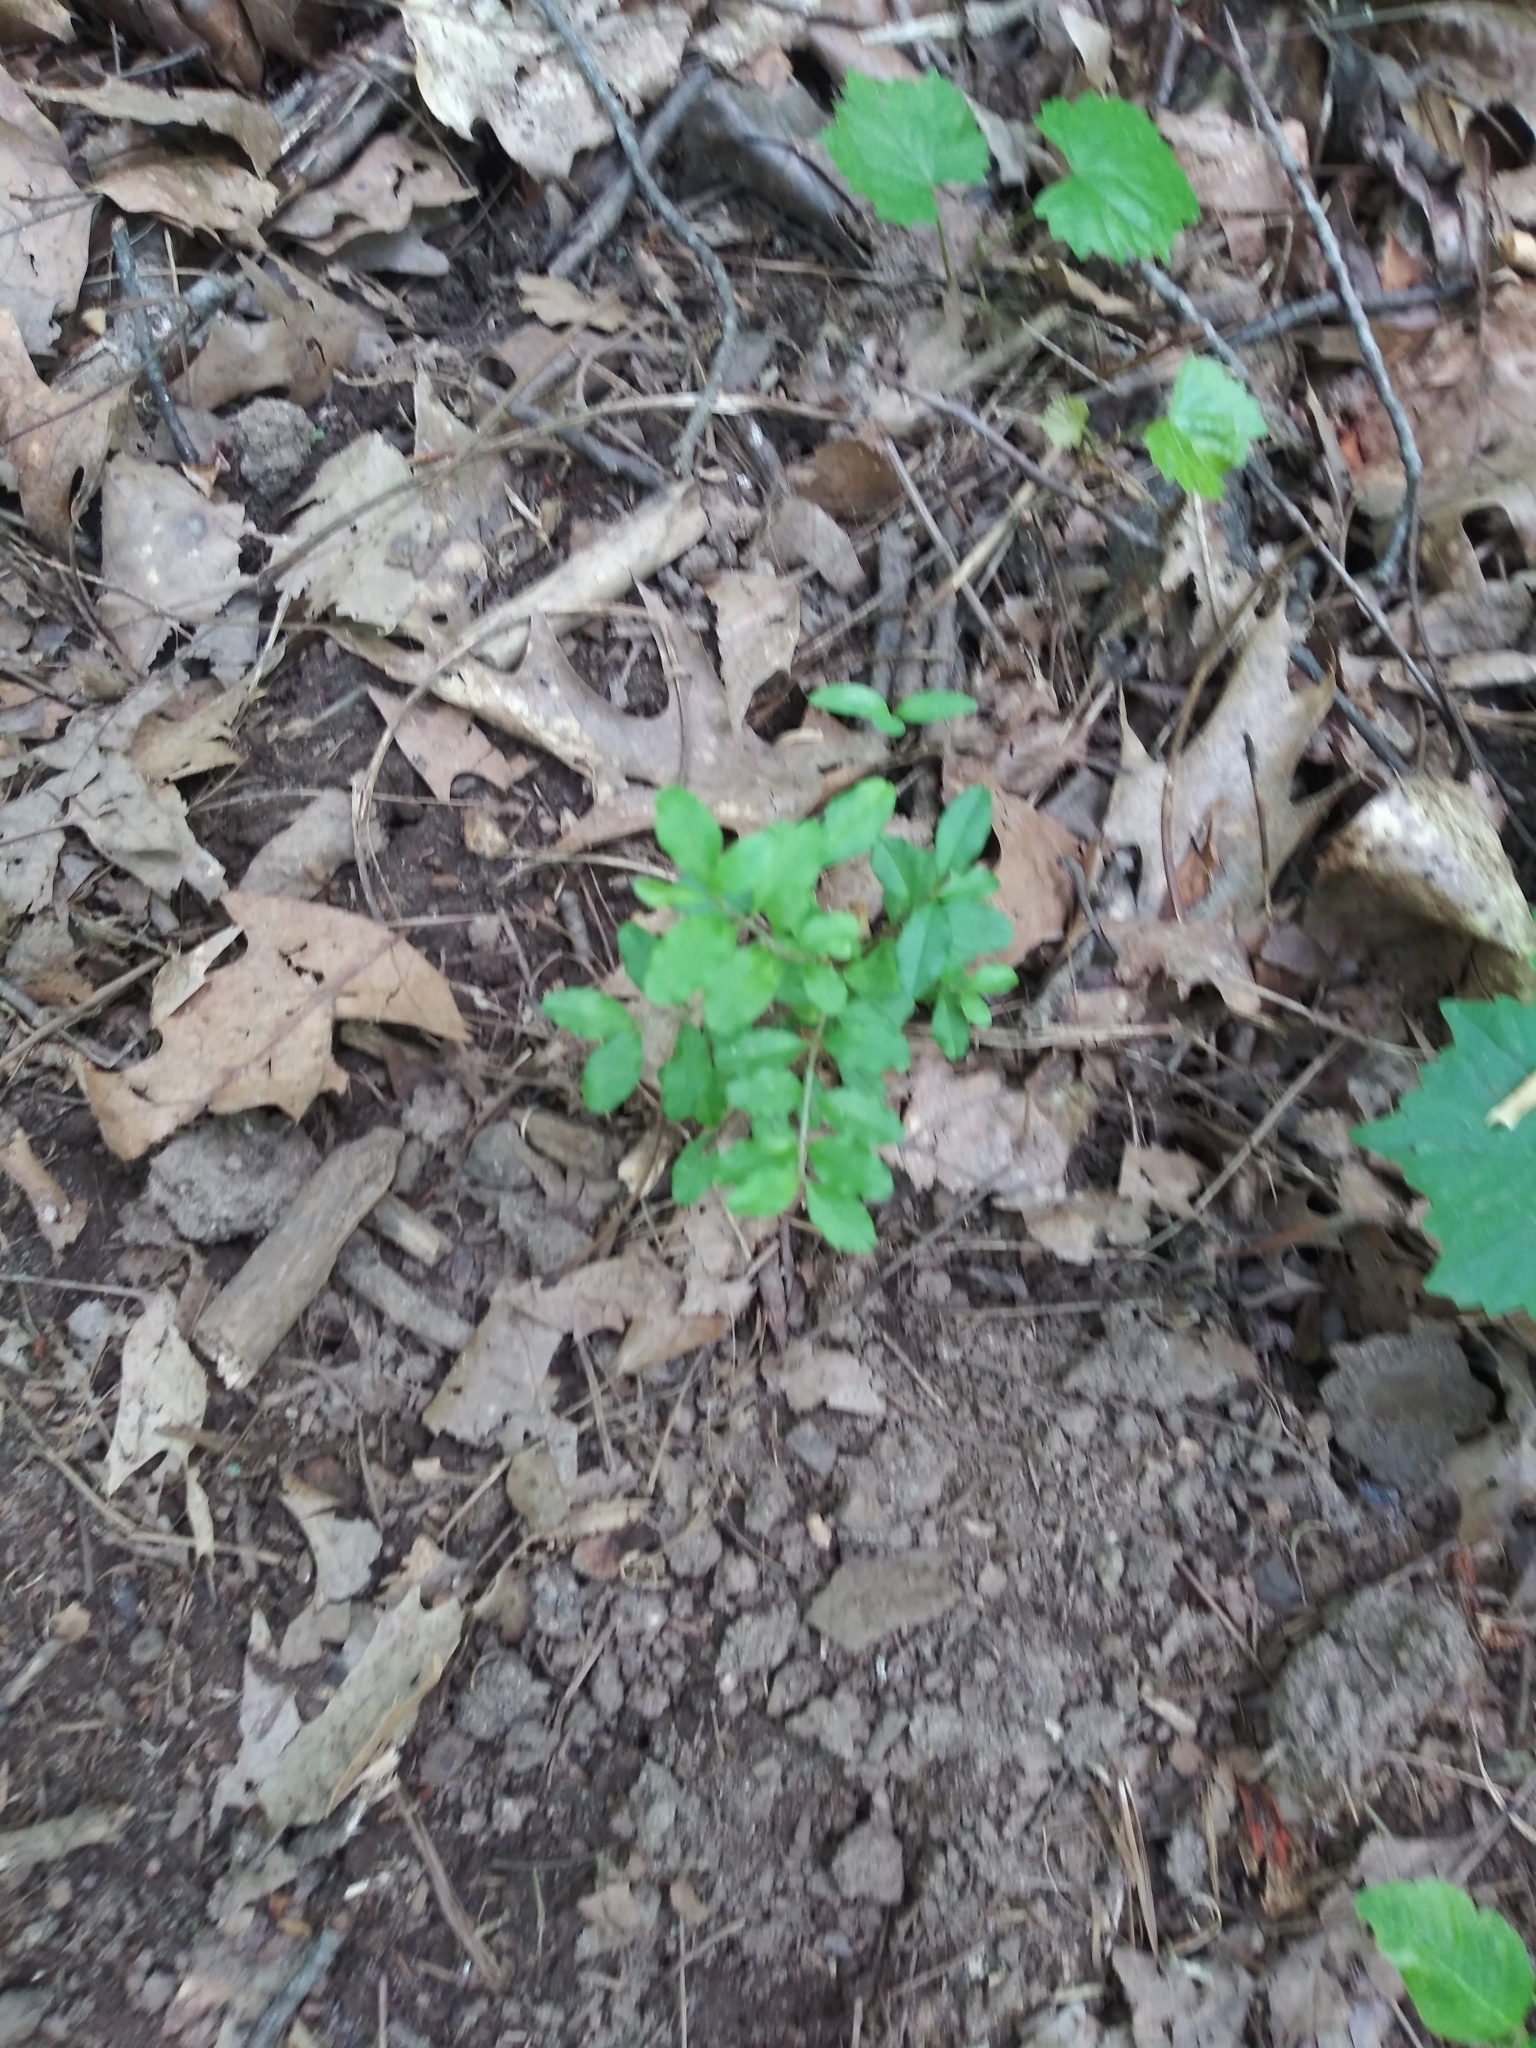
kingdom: Plantae
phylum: Tracheophyta
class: Magnoliopsida
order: Lamiales
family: Oleaceae
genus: Ligustrum
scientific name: Ligustrum sinense
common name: Chinese privet
